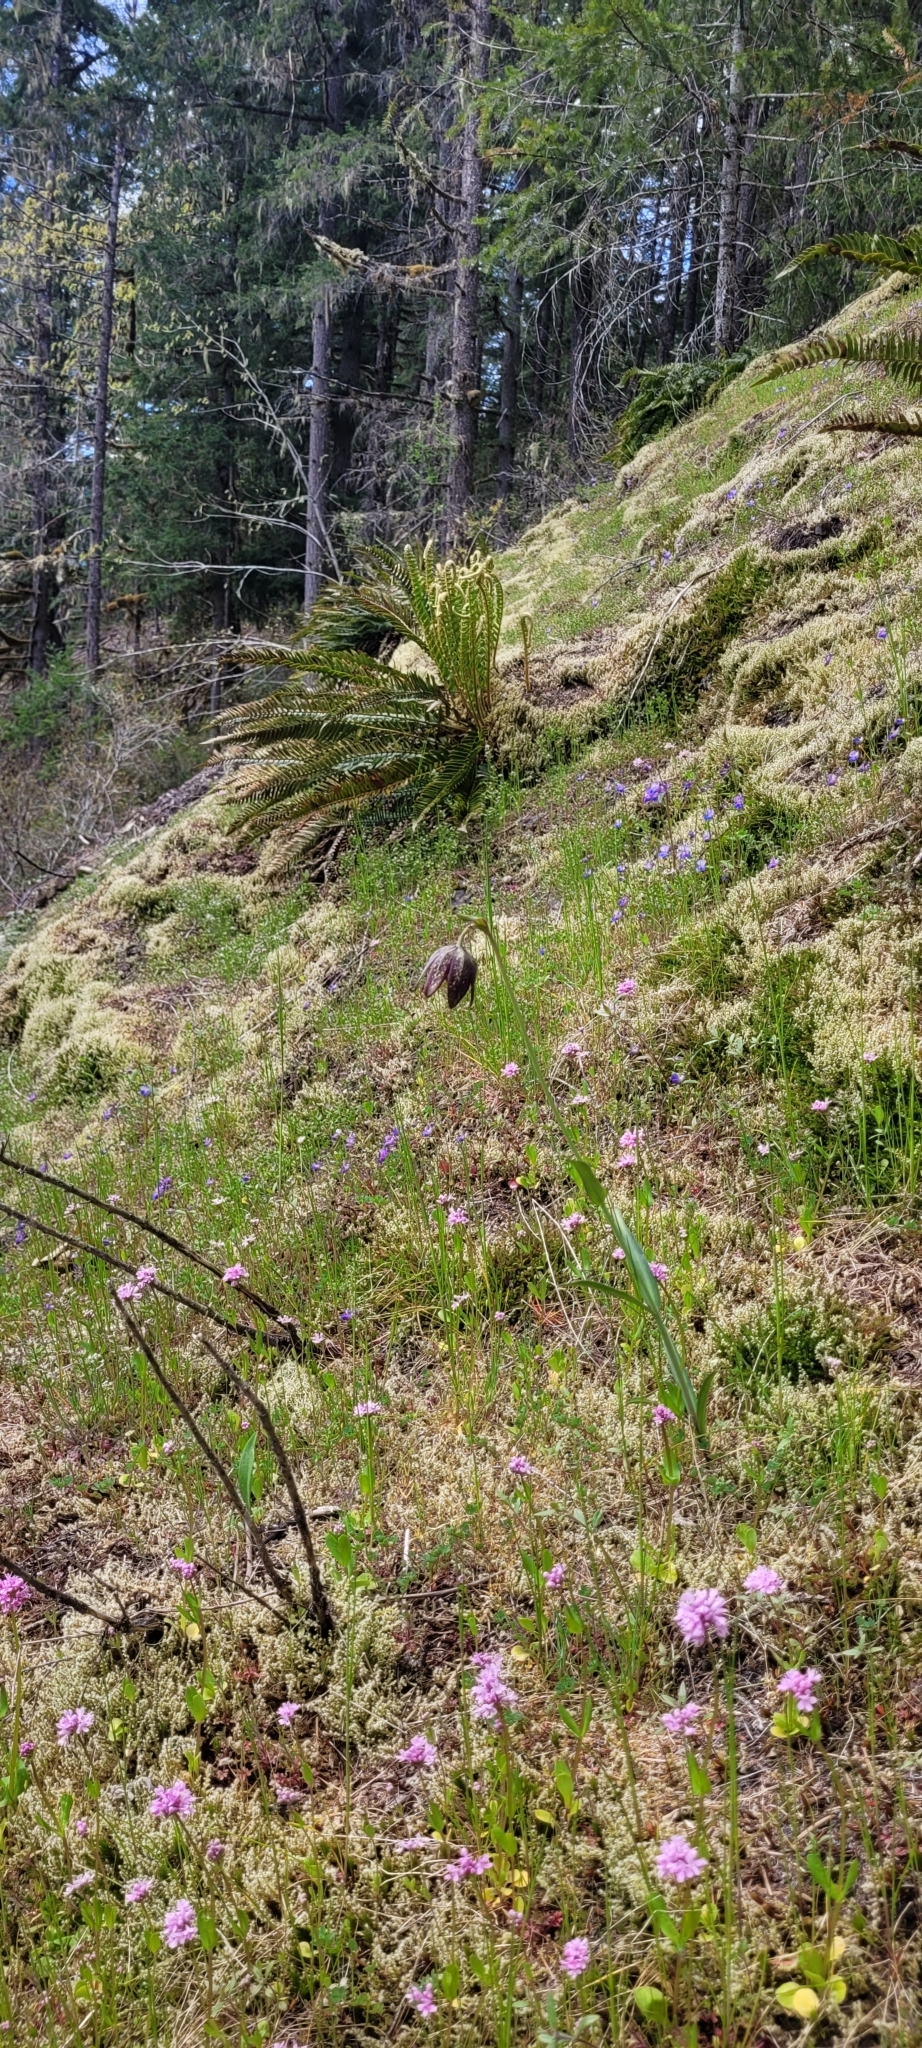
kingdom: Plantae
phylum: Tracheophyta
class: Liliopsida
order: Liliales
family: Liliaceae
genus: Fritillaria
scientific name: Fritillaria affinis
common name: Ojai fritillary
